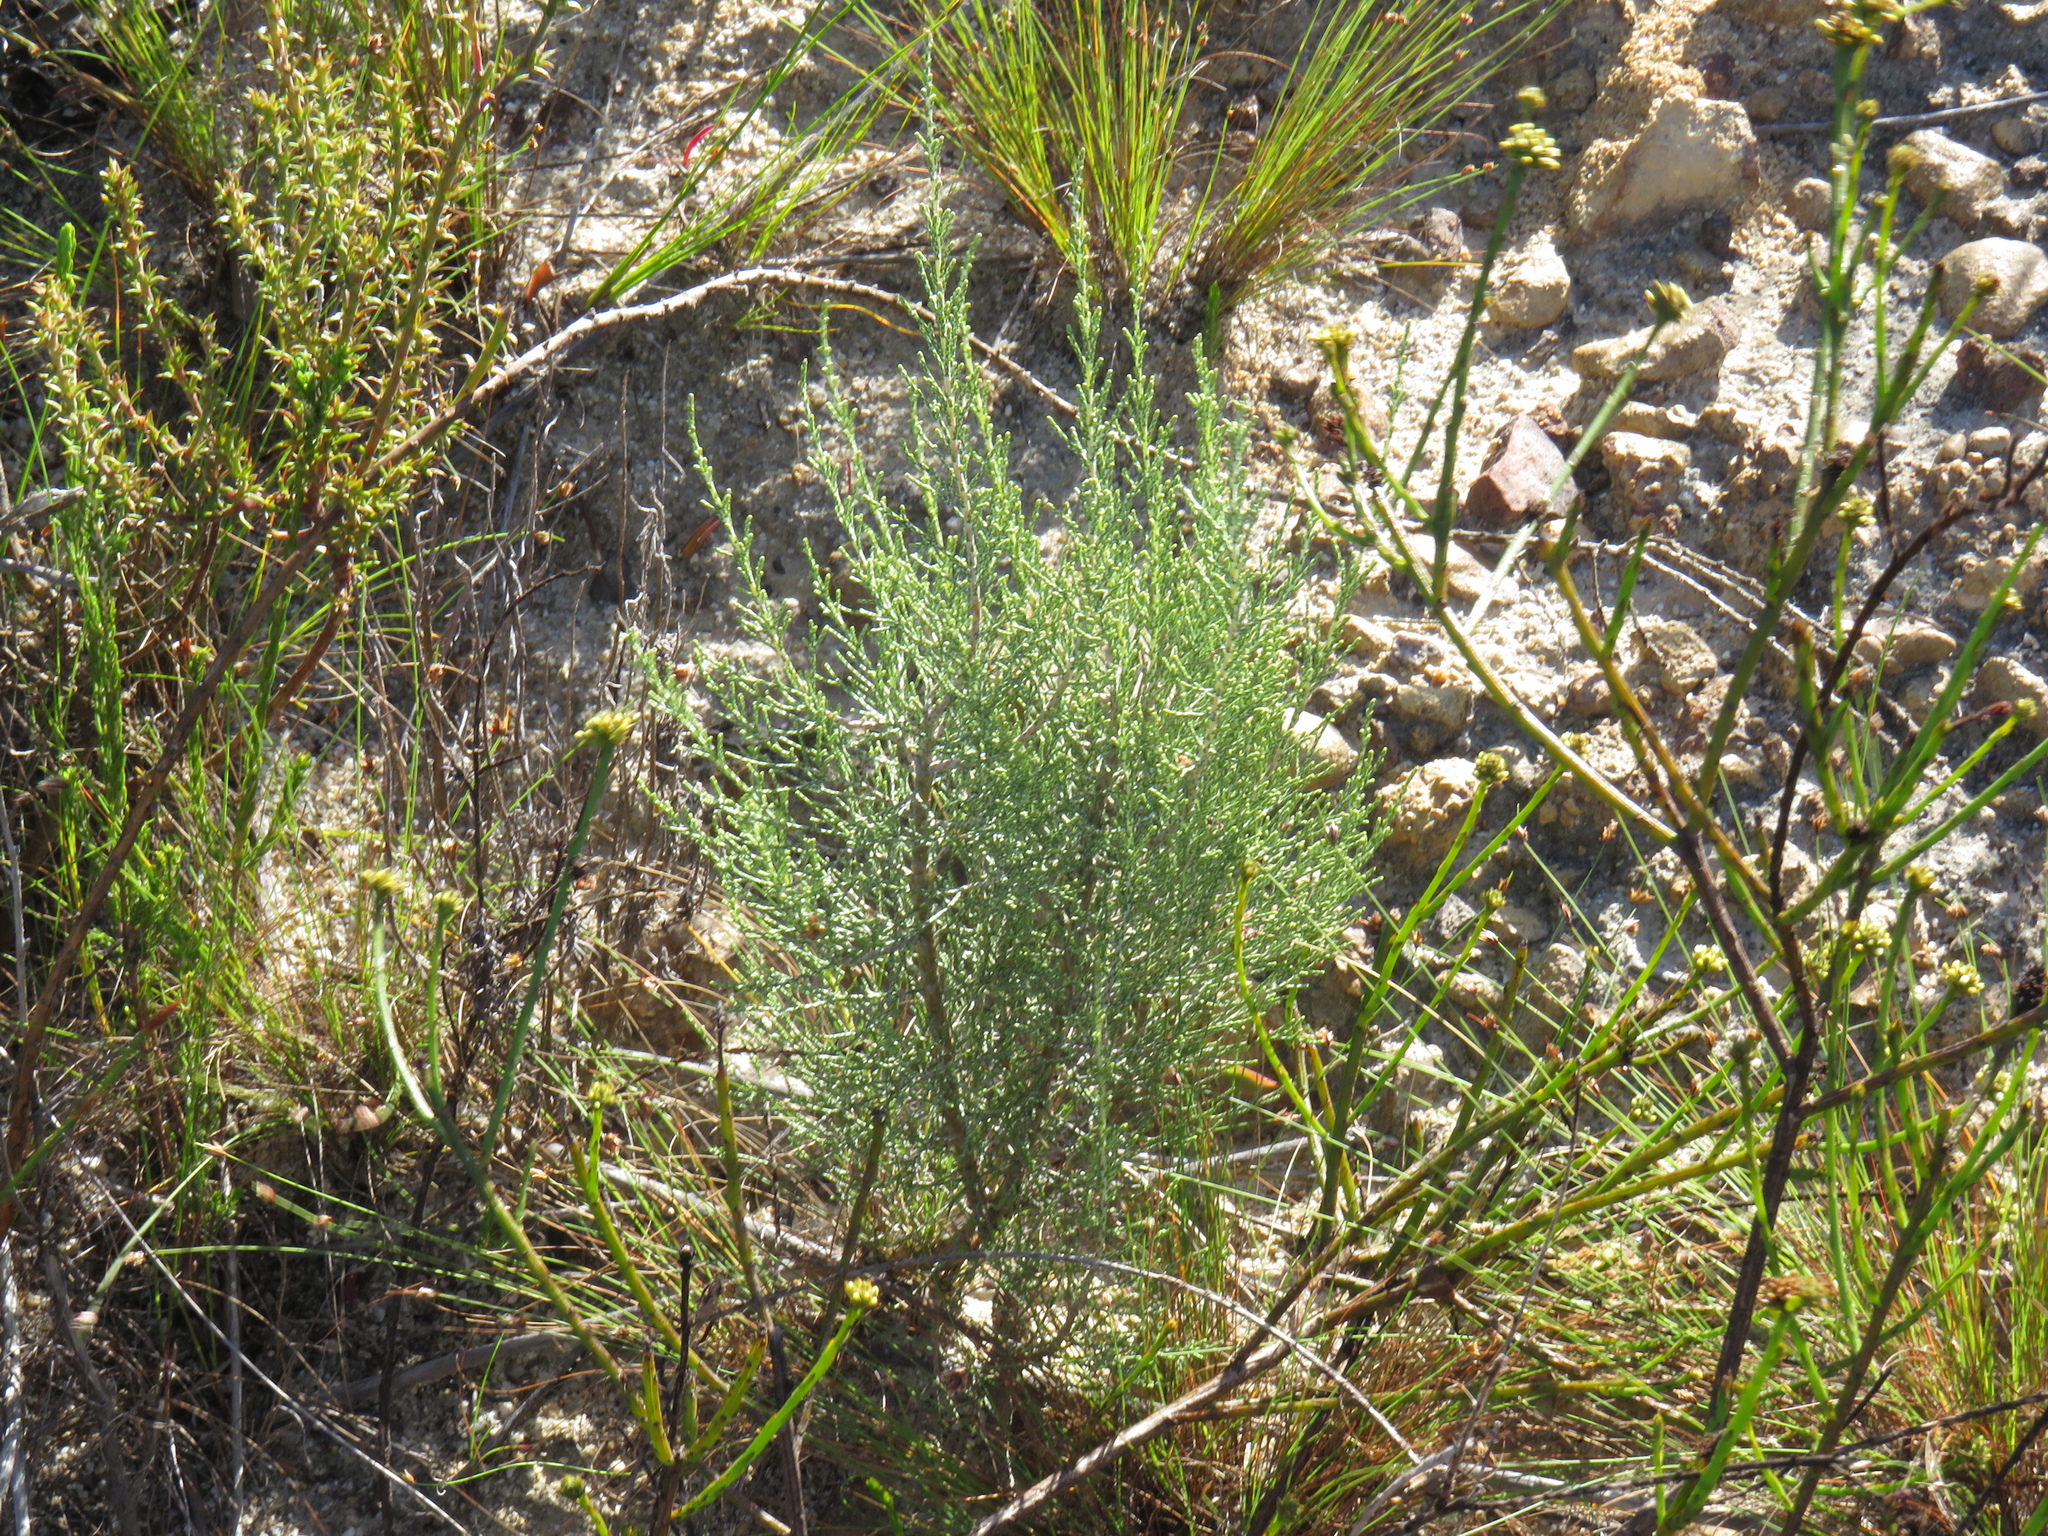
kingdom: Plantae
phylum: Tracheophyta
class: Magnoliopsida
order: Asterales
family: Asteraceae
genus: Dicerothamnus
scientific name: Dicerothamnus rhinocerotis
